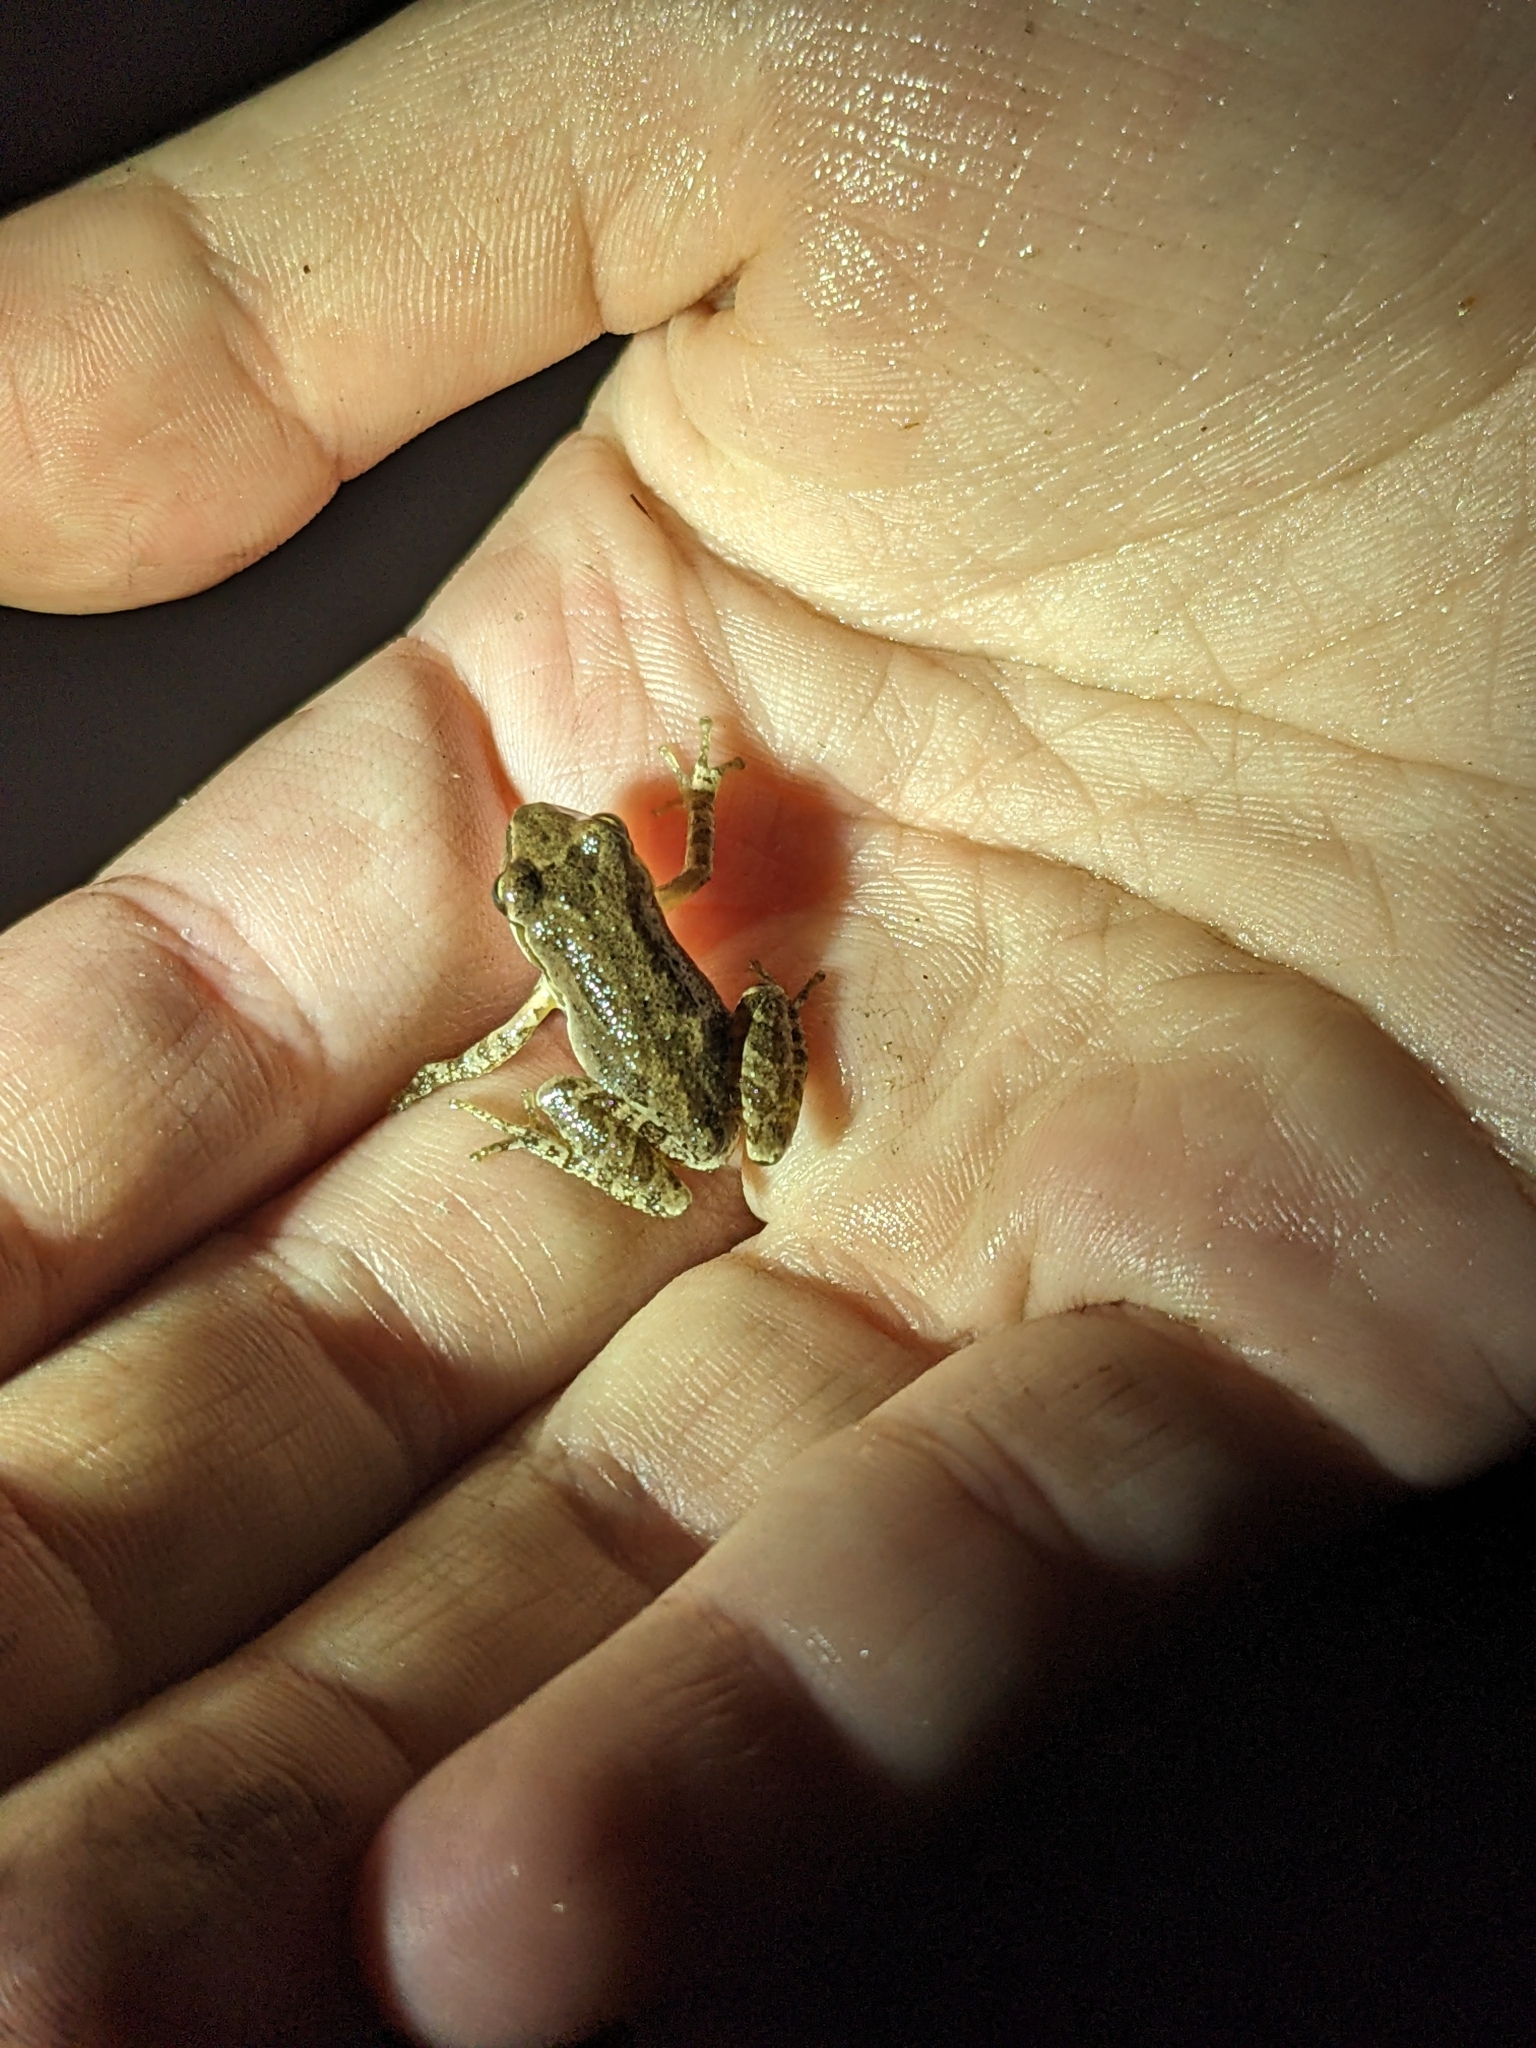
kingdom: Animalia
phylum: Chordata
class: Amphibia
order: Anura
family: Hylidae
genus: Pseudacris
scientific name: Pseudacris regilla
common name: Pacific chorus frog
